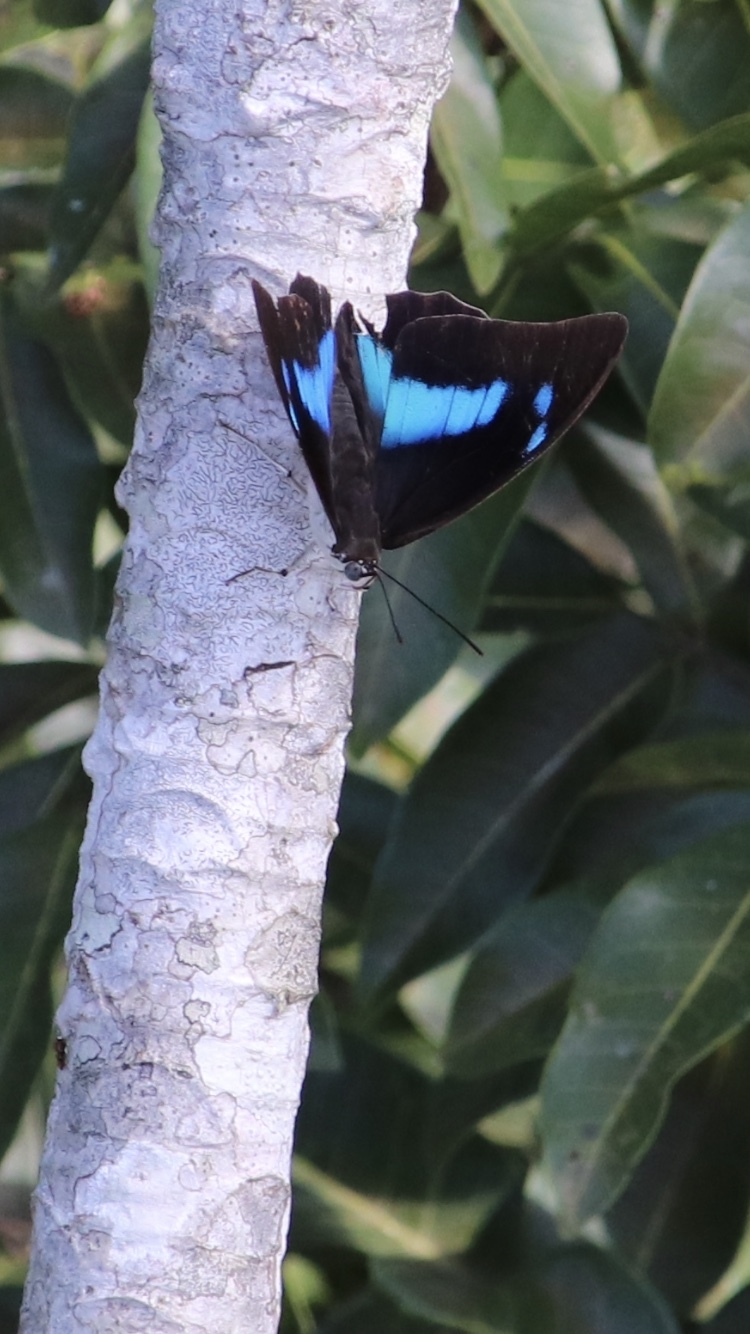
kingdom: Animalia
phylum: Arthropoda
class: Insecta
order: Lepidoptera
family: Nymphalidae
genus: Prepona
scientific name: Prepona demophoon
